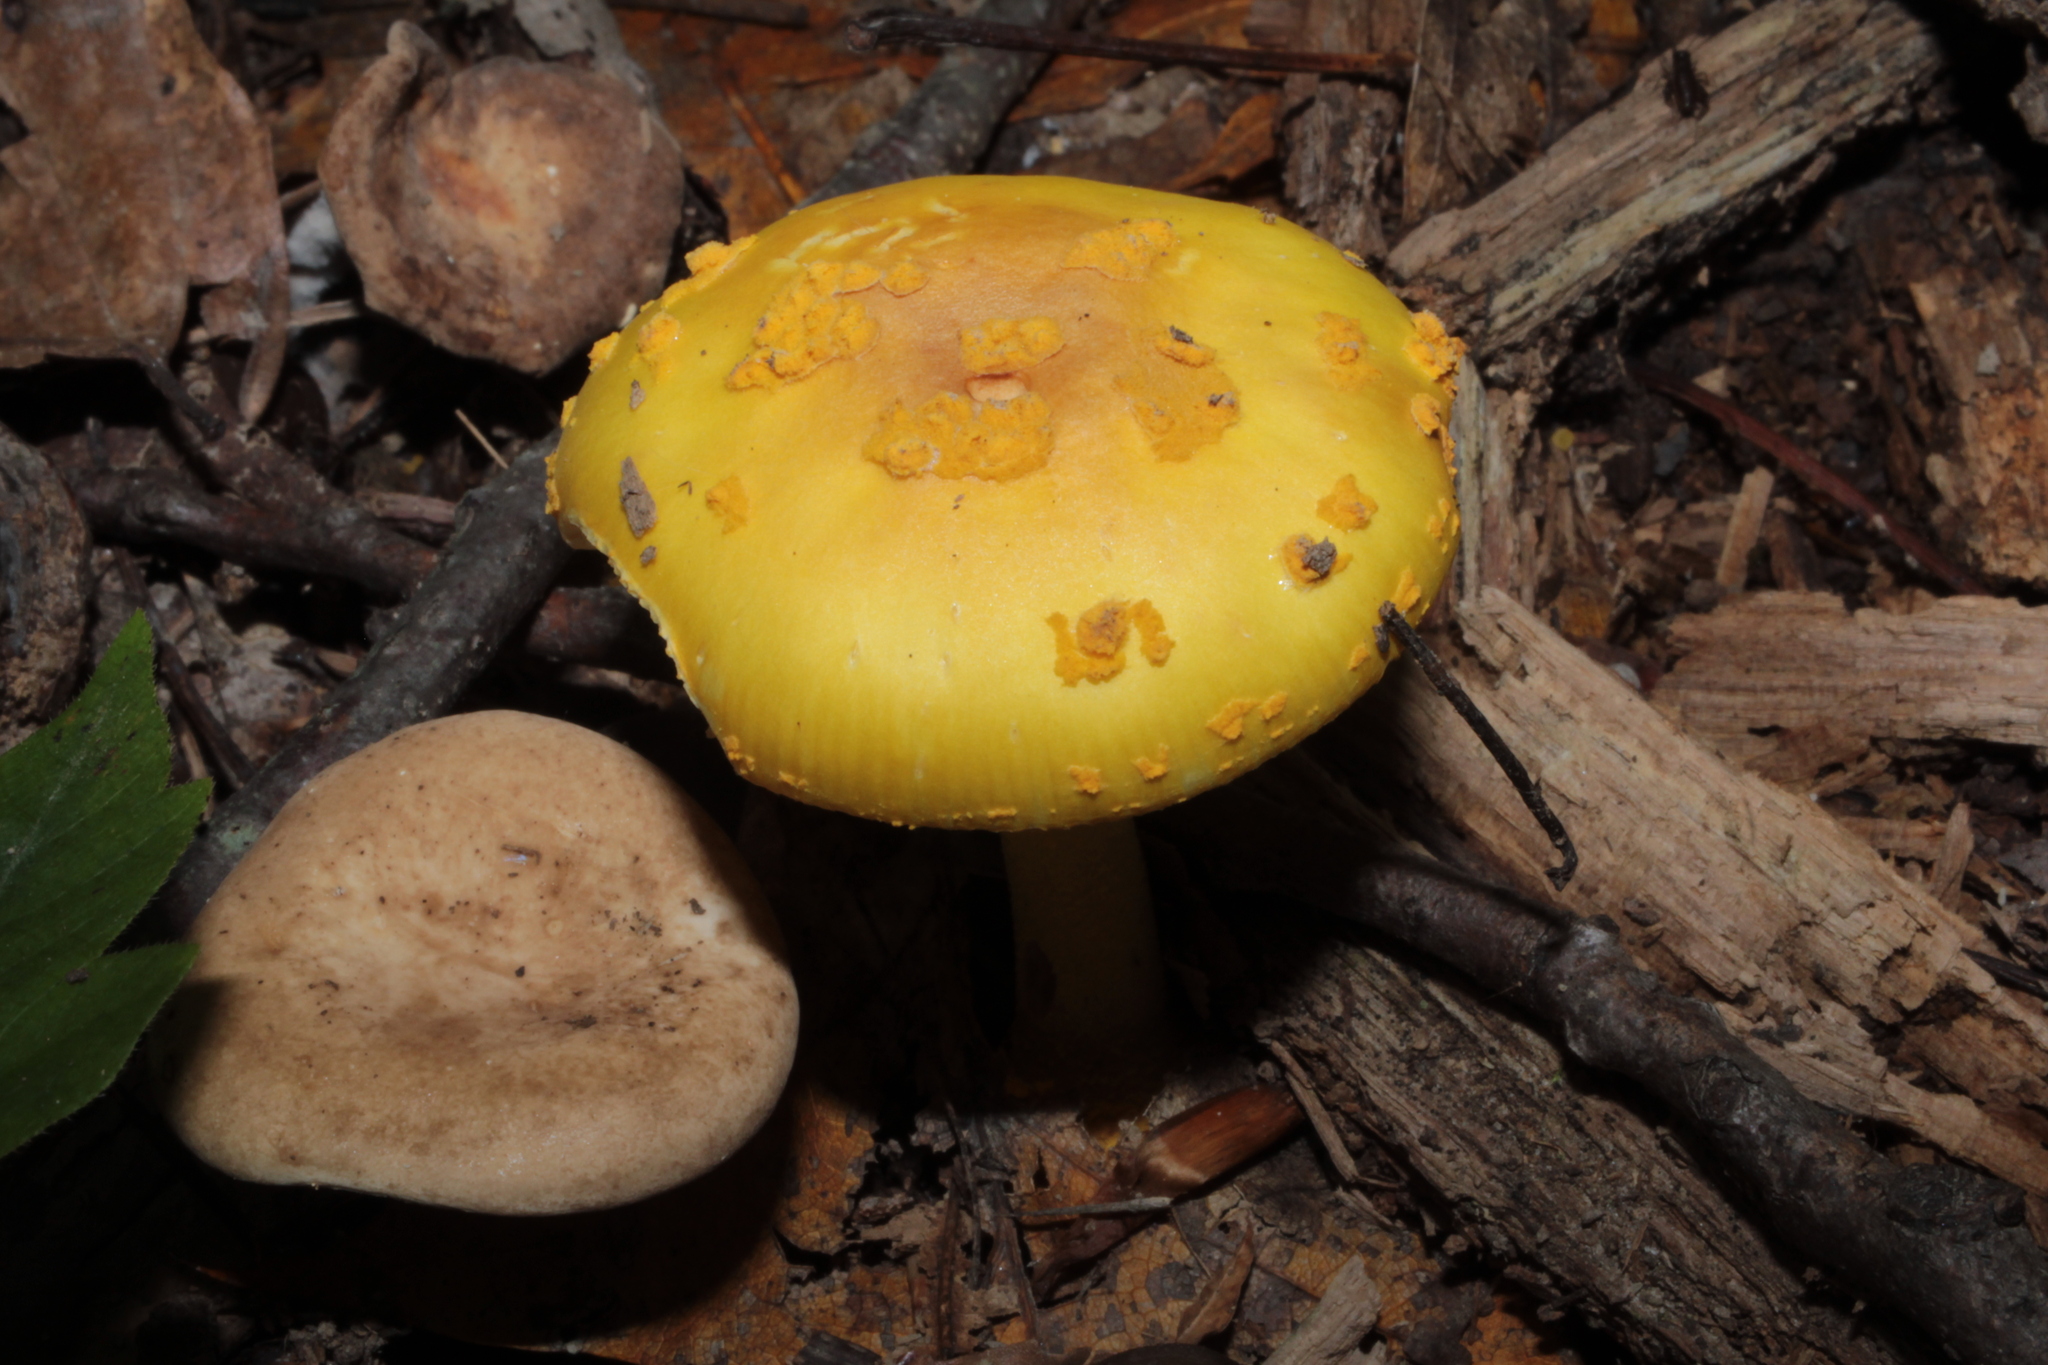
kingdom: Fungi
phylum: Basidiomycota
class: Agaricomycetes
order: Agaricales
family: Amanitaceae
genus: Amanita
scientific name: Amanita flavorubens
